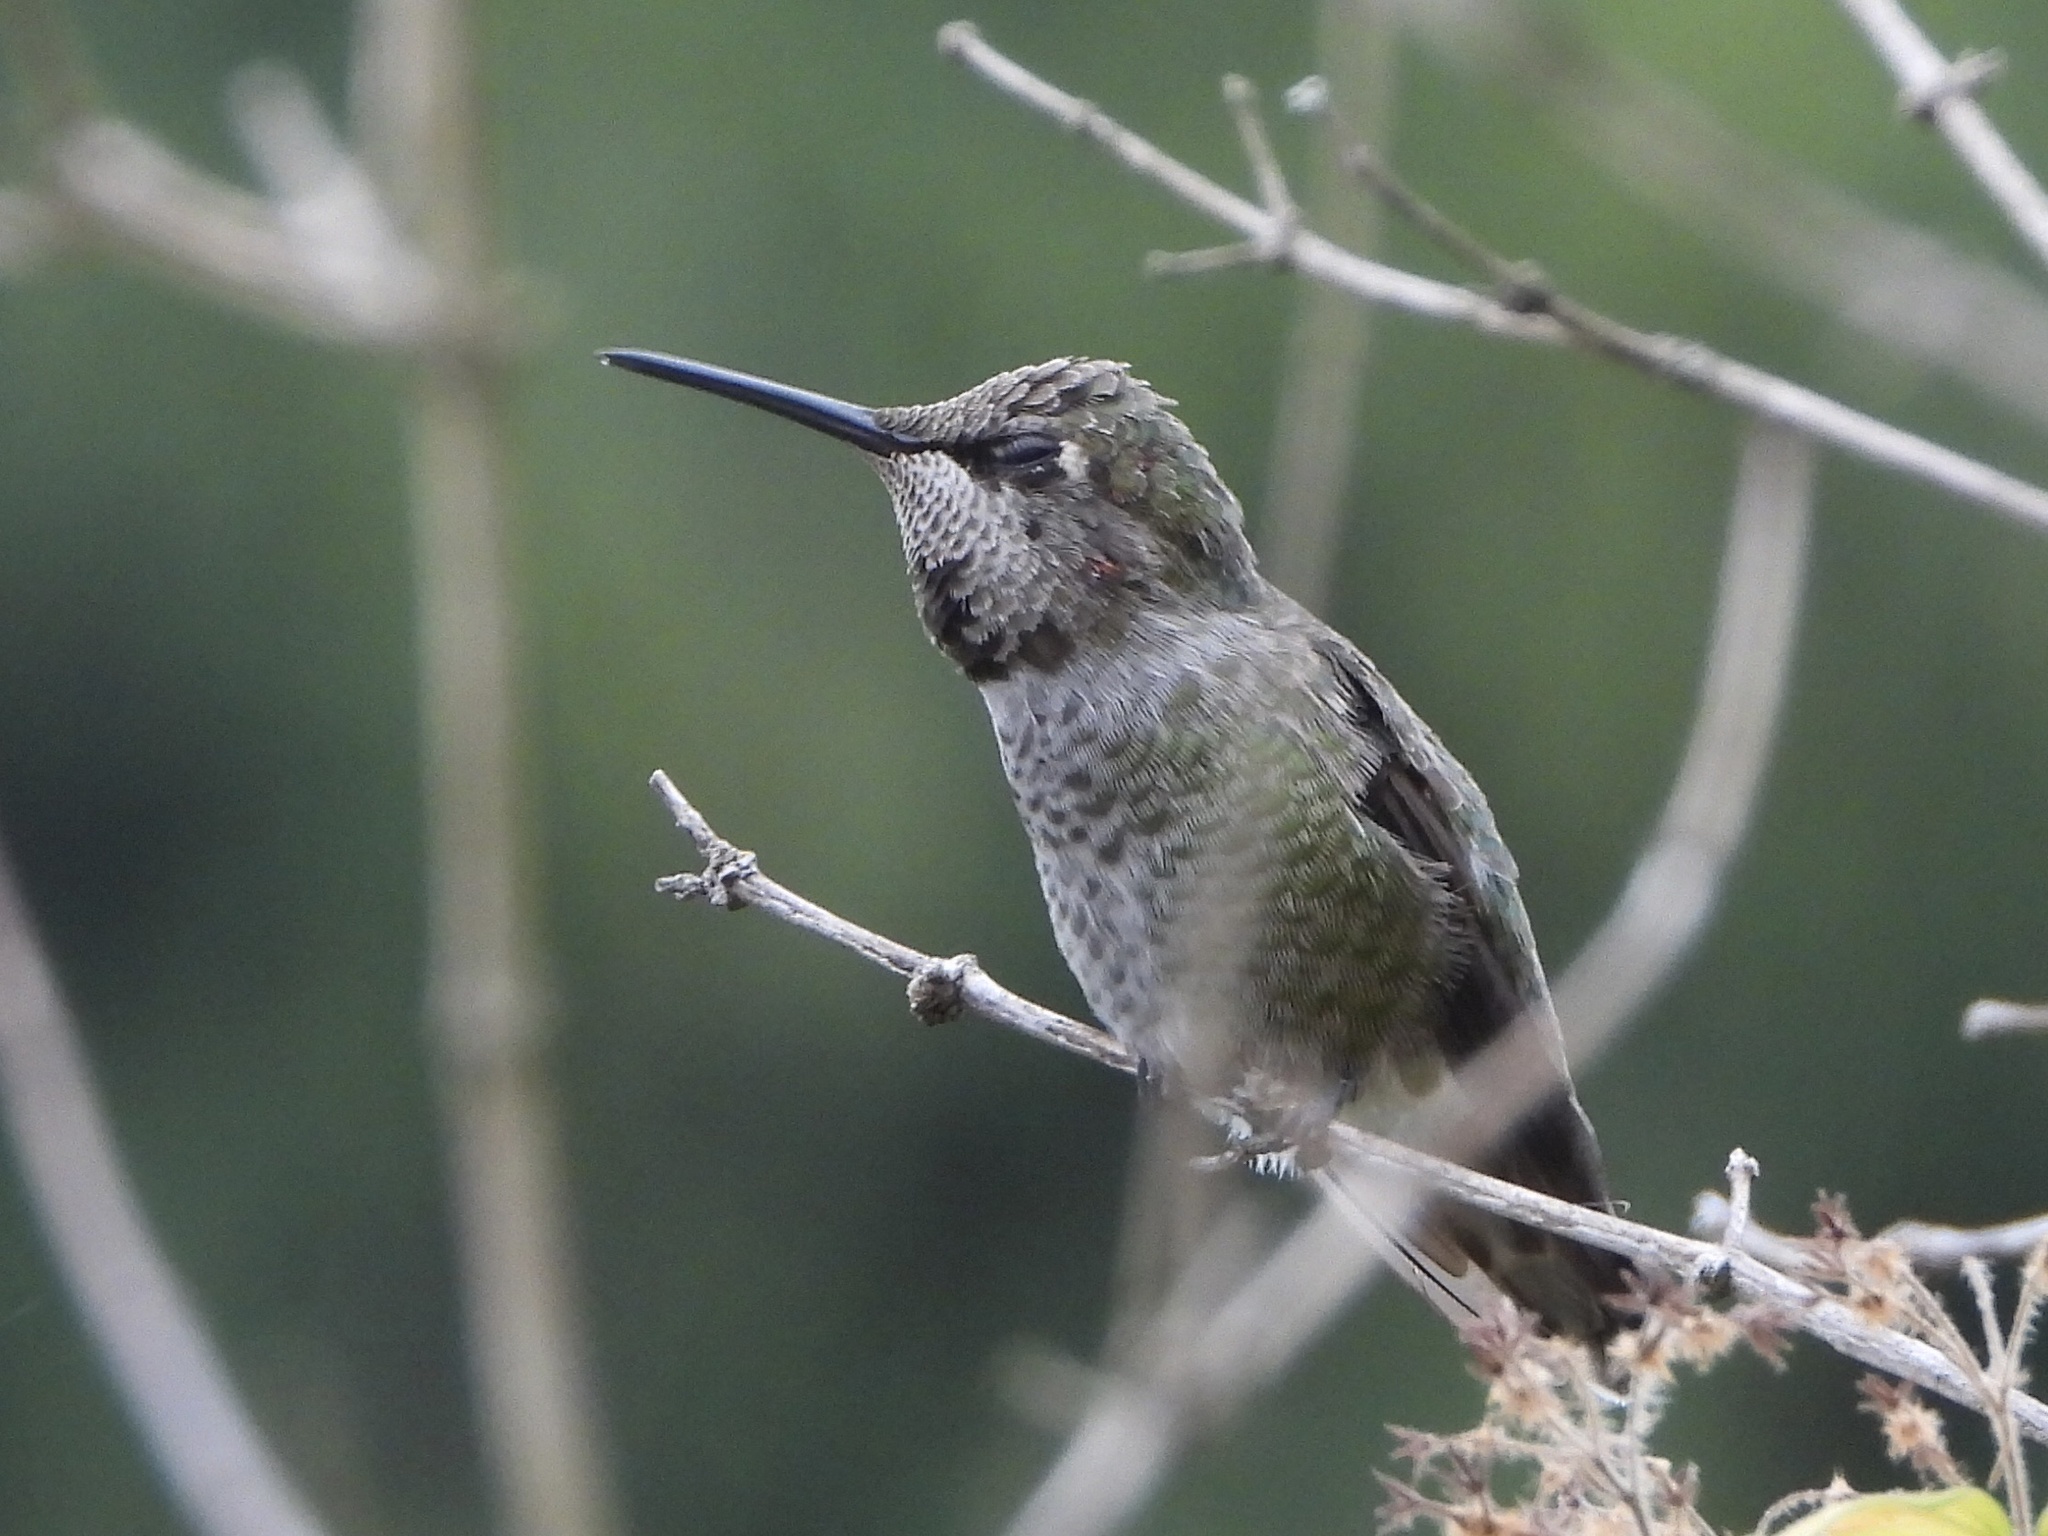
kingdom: Animalia
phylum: Chordata
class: Aves
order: Apodiformes
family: Trochilidae
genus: Calypte
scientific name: Calypte anna
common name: Anna's hummingbird
